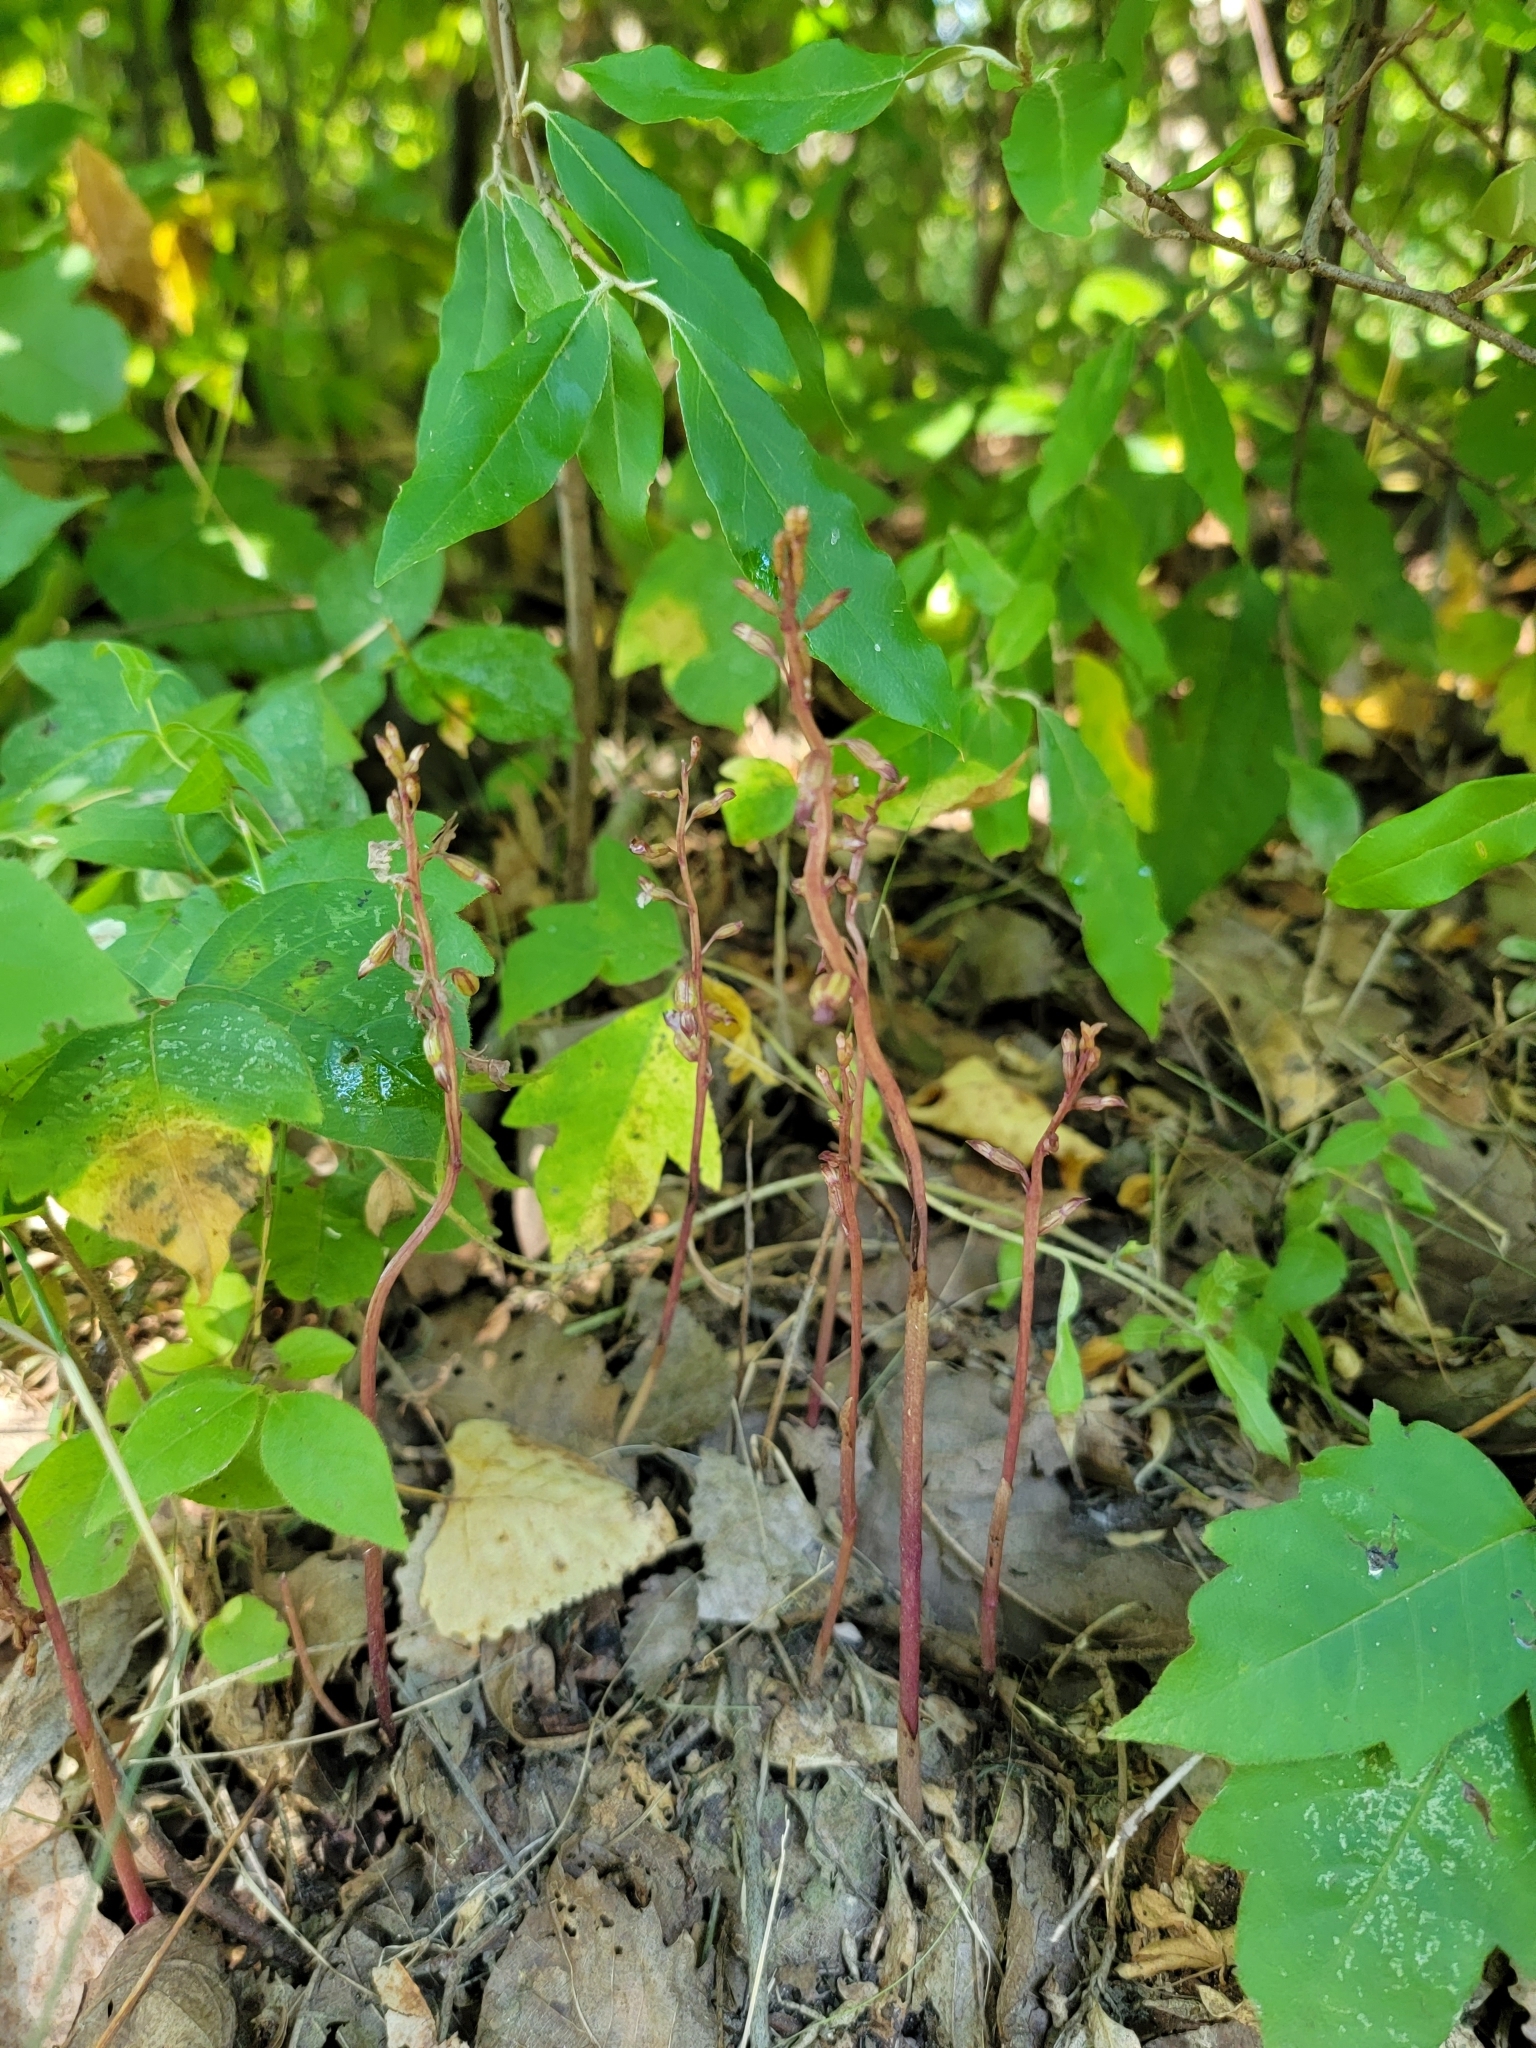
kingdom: Plantae
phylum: Tracheophyta
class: Liliopsida
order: Asparagales
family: Orchidaceae
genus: Corallorhiza
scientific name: Corallorhiza odontorhiza
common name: Autumn coralroot
